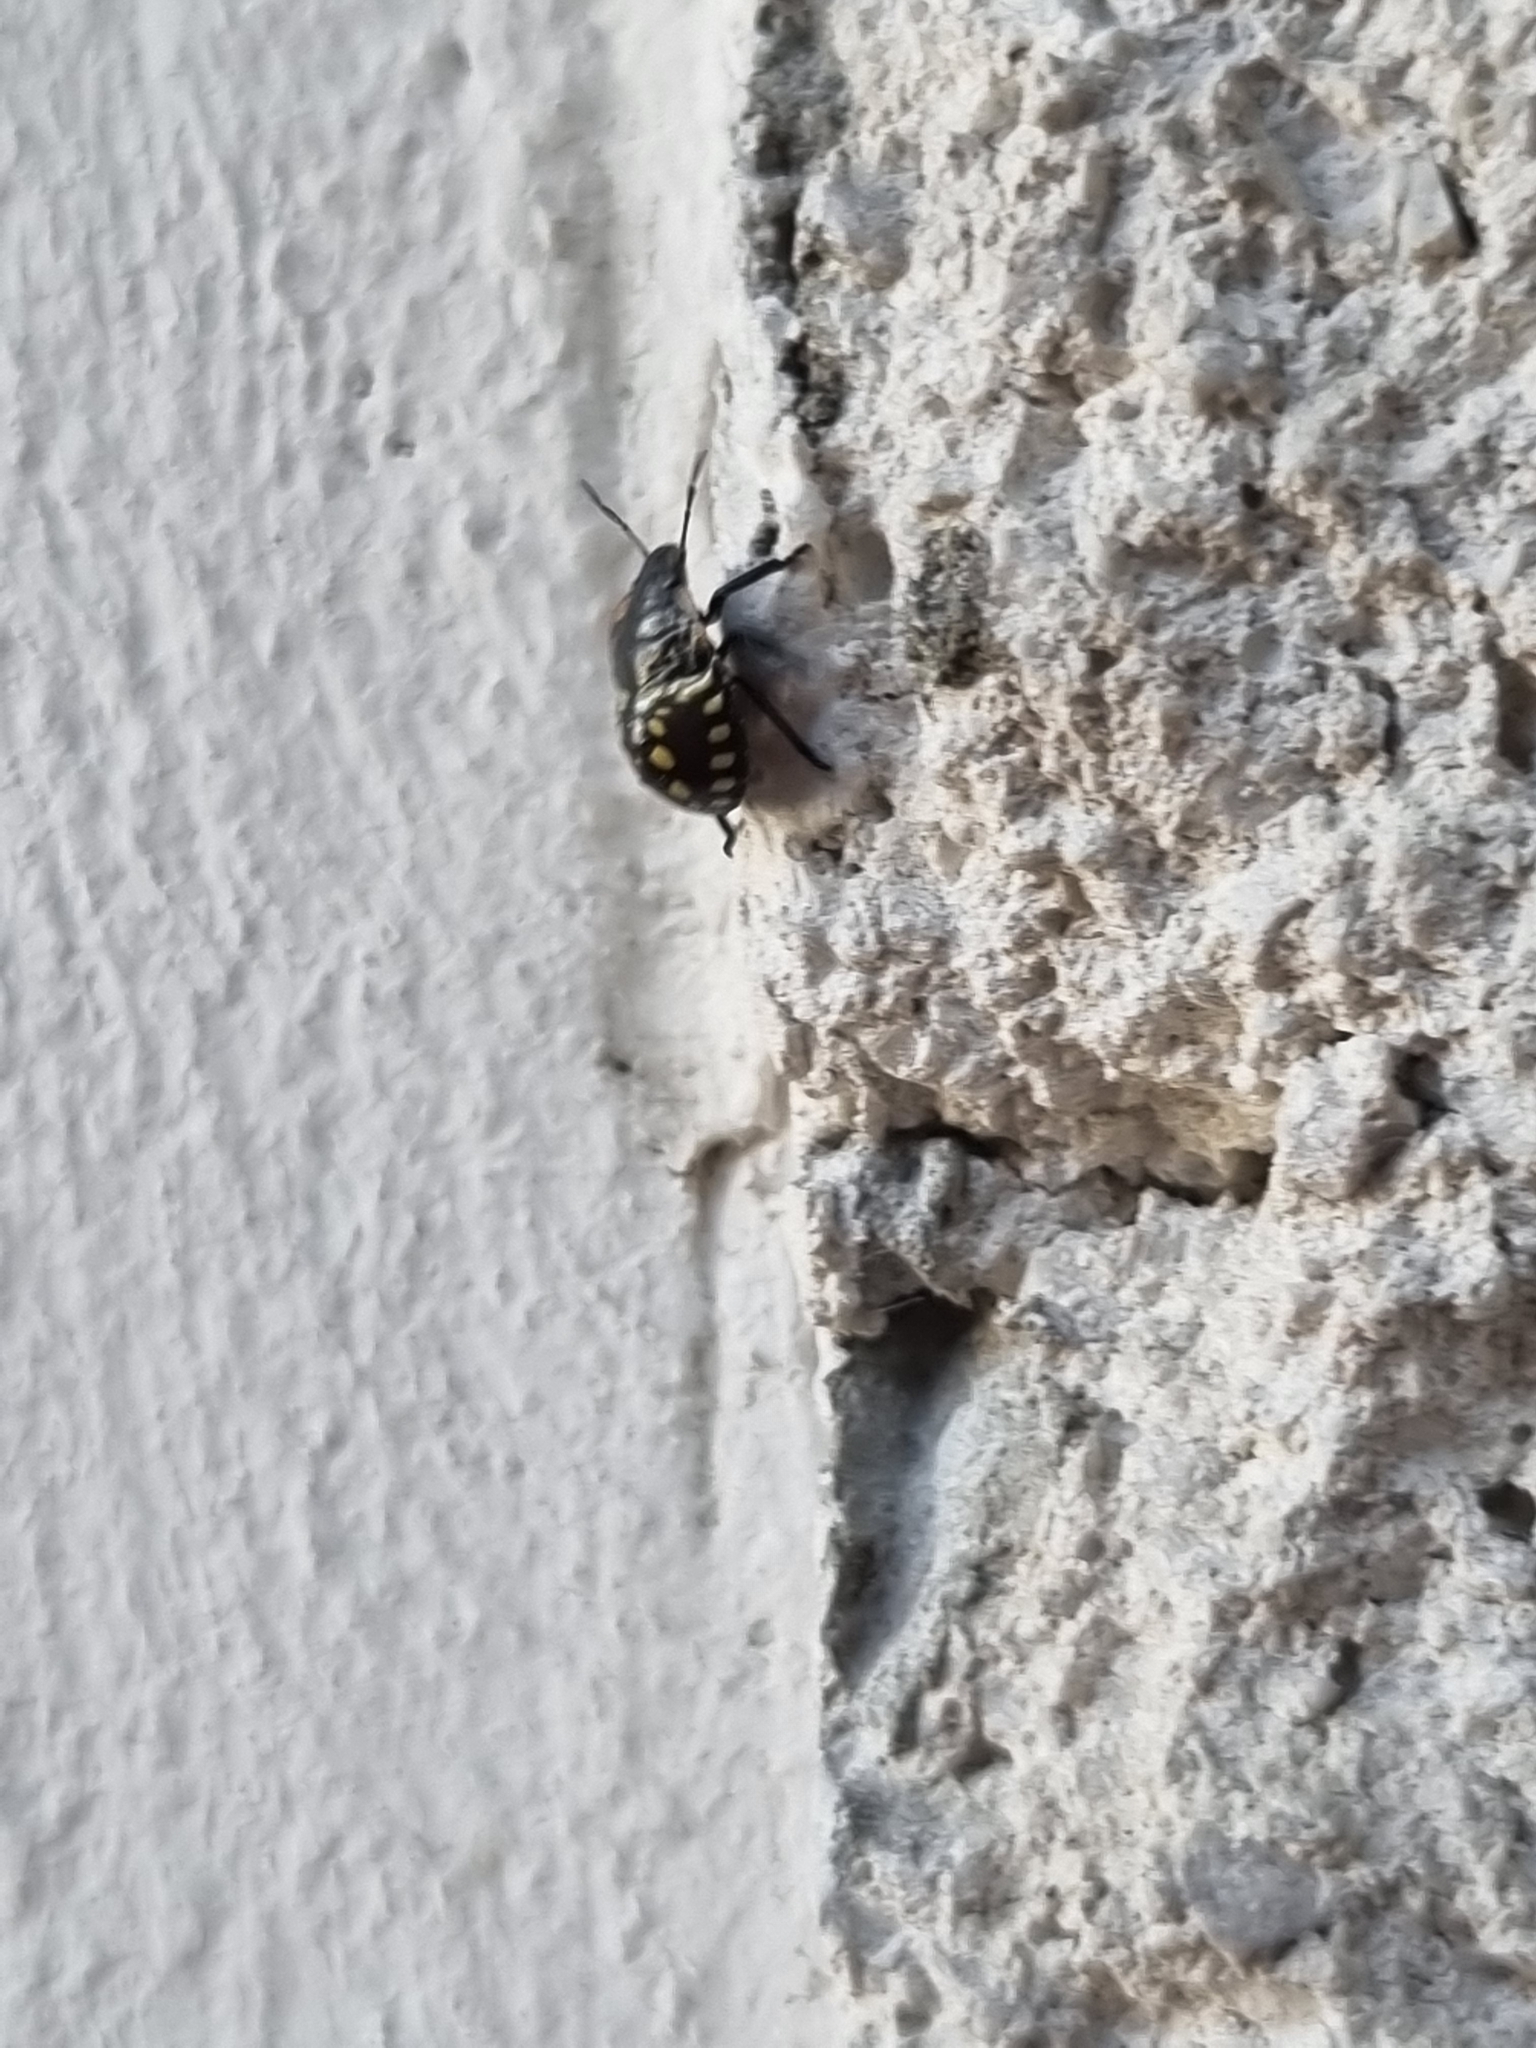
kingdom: Animalia
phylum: Arthropoda
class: Insecta
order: Hemiptera
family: Pentatomidae
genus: Nezara
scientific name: Nezara viridula
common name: Southern green stink bug
